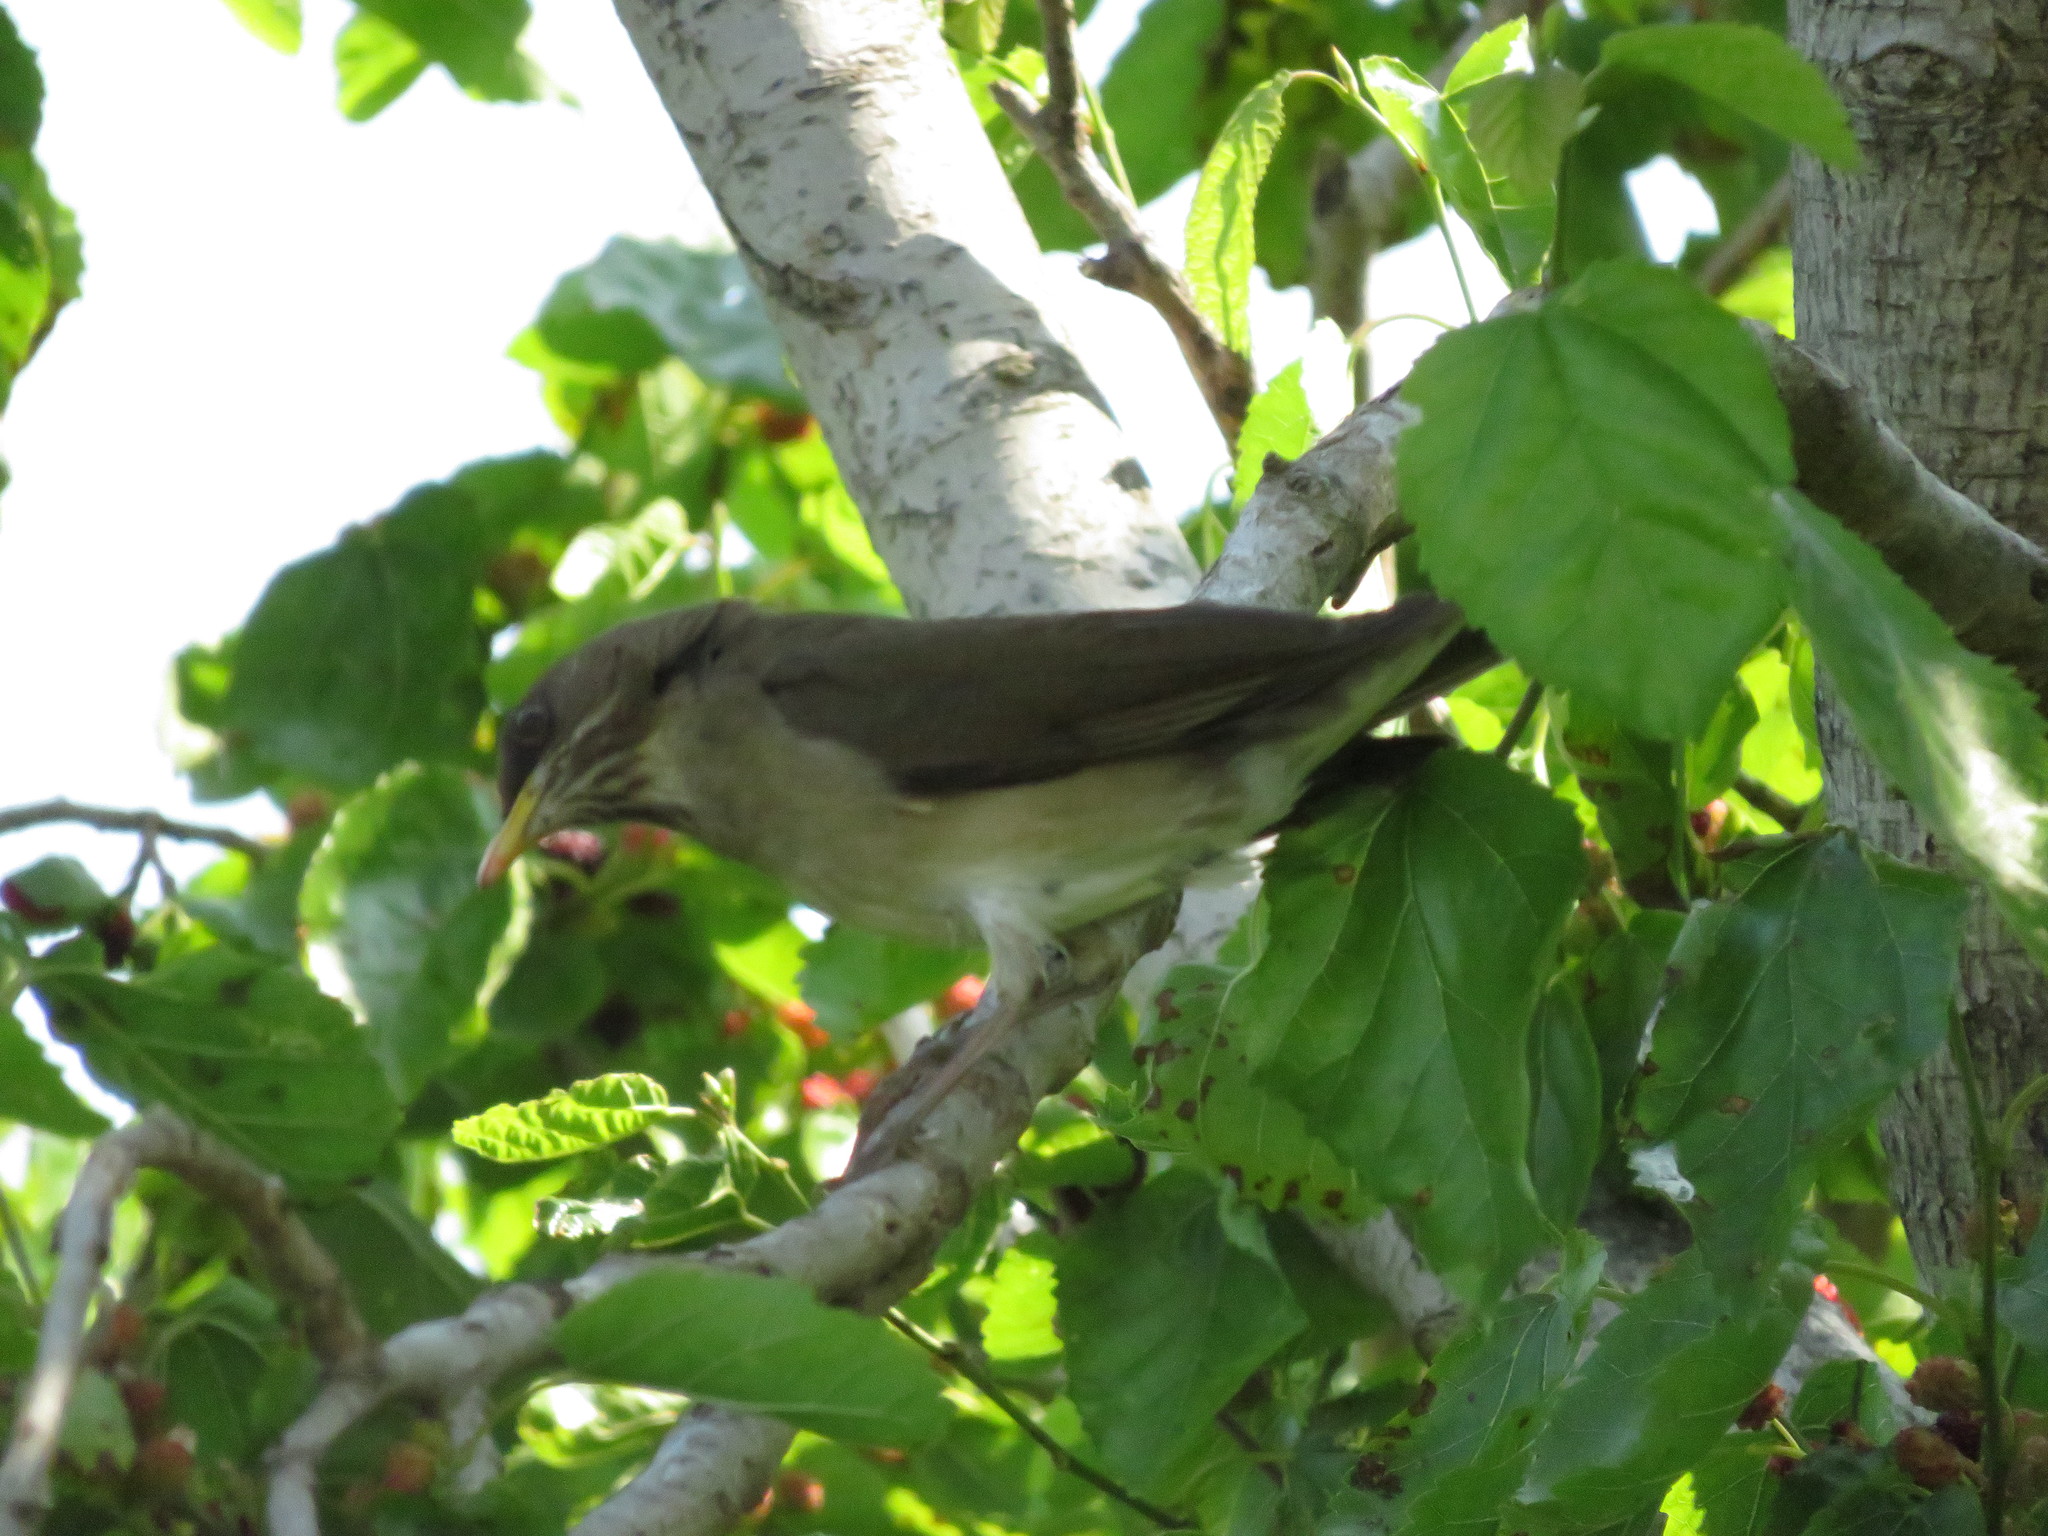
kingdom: Animalia
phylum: Chordata
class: Aves
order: Passeriformes
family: Turdidae
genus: Turdus
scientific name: Turdus amaurochalinus
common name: Creamy-bellied thrush
